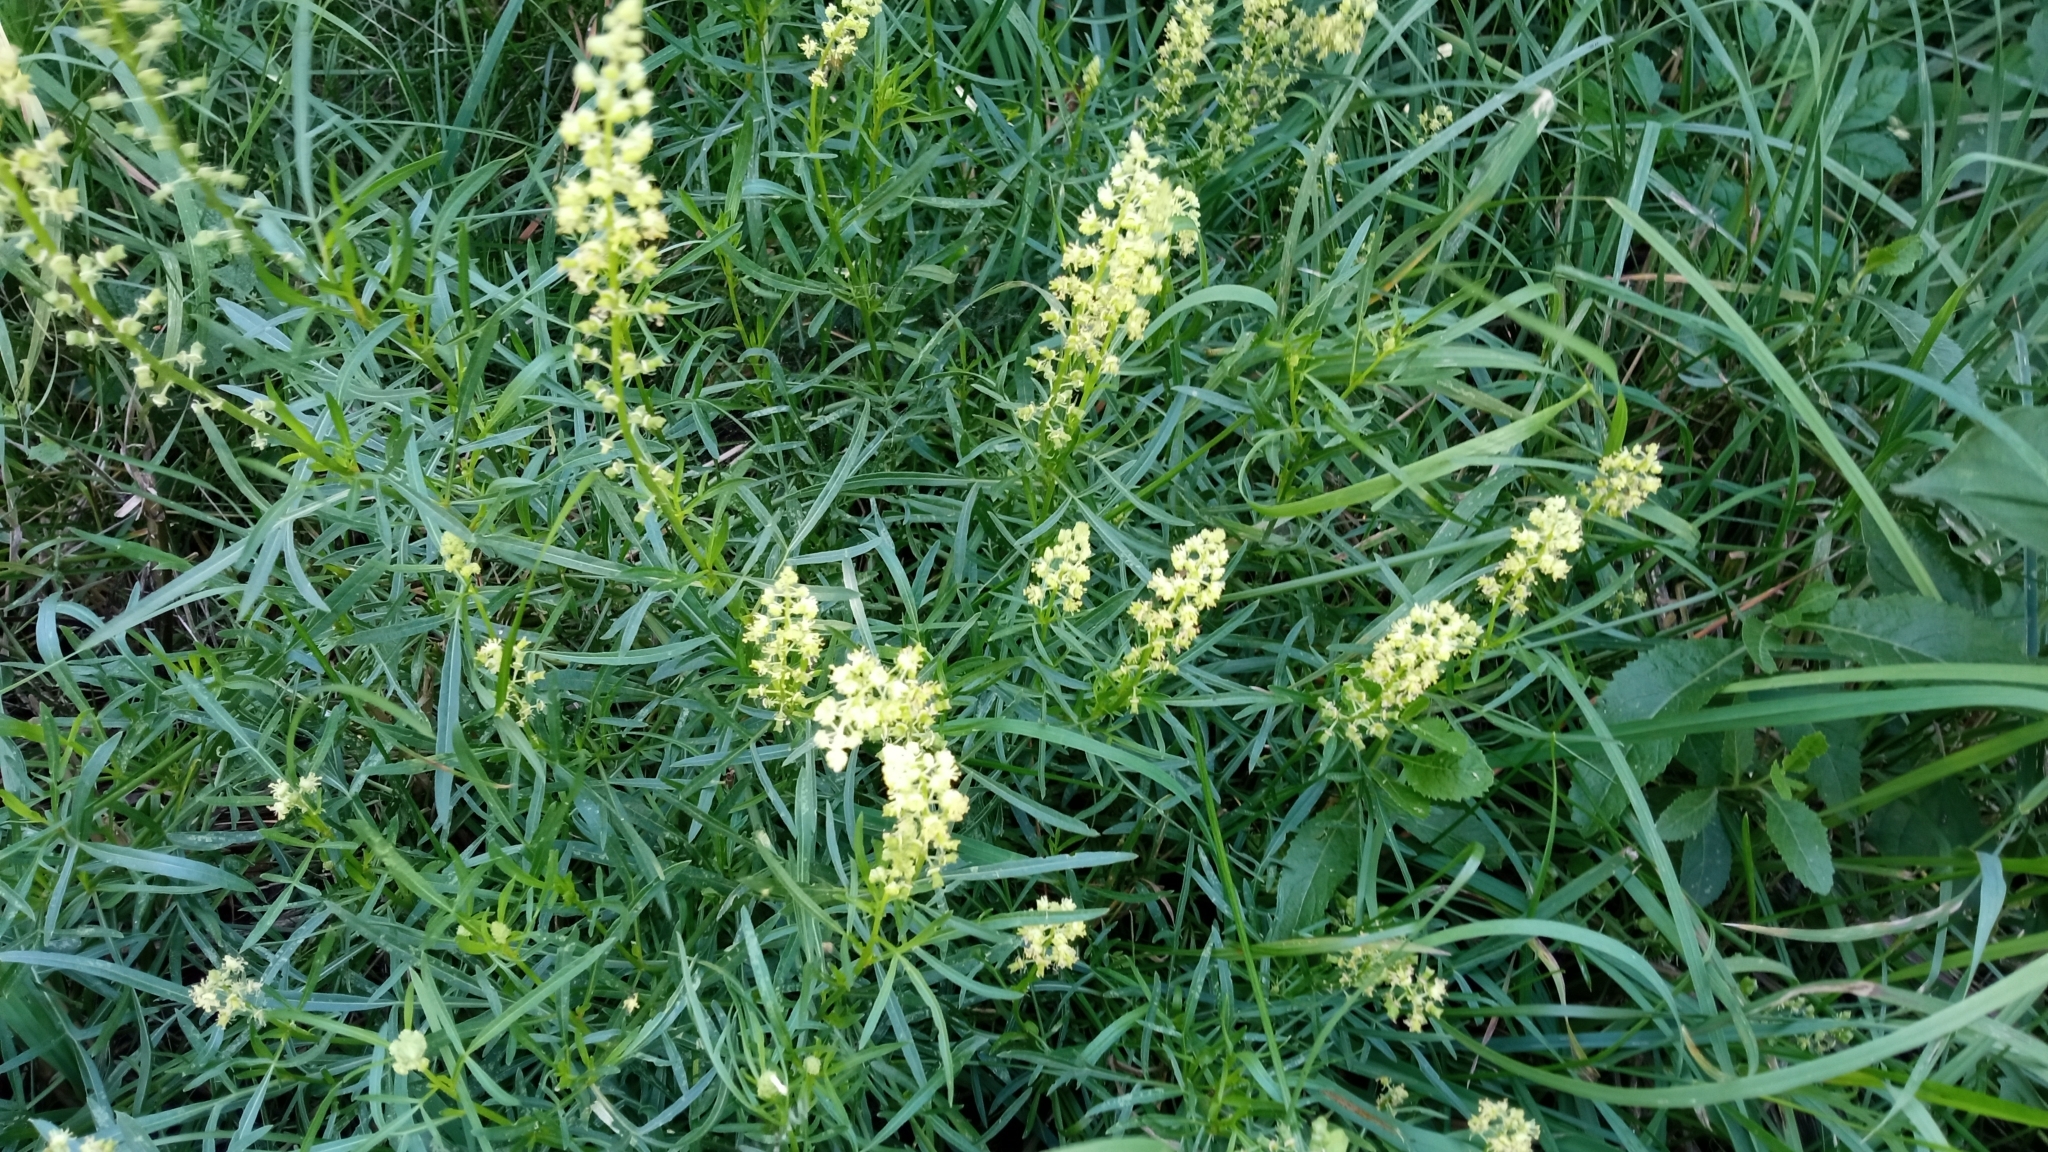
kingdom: Plantae
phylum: Tracheophyta
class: Magnoliopsida
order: Brassicales
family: Resedaceae
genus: Reseda
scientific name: Reseda lutea
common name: Wild mignonette
